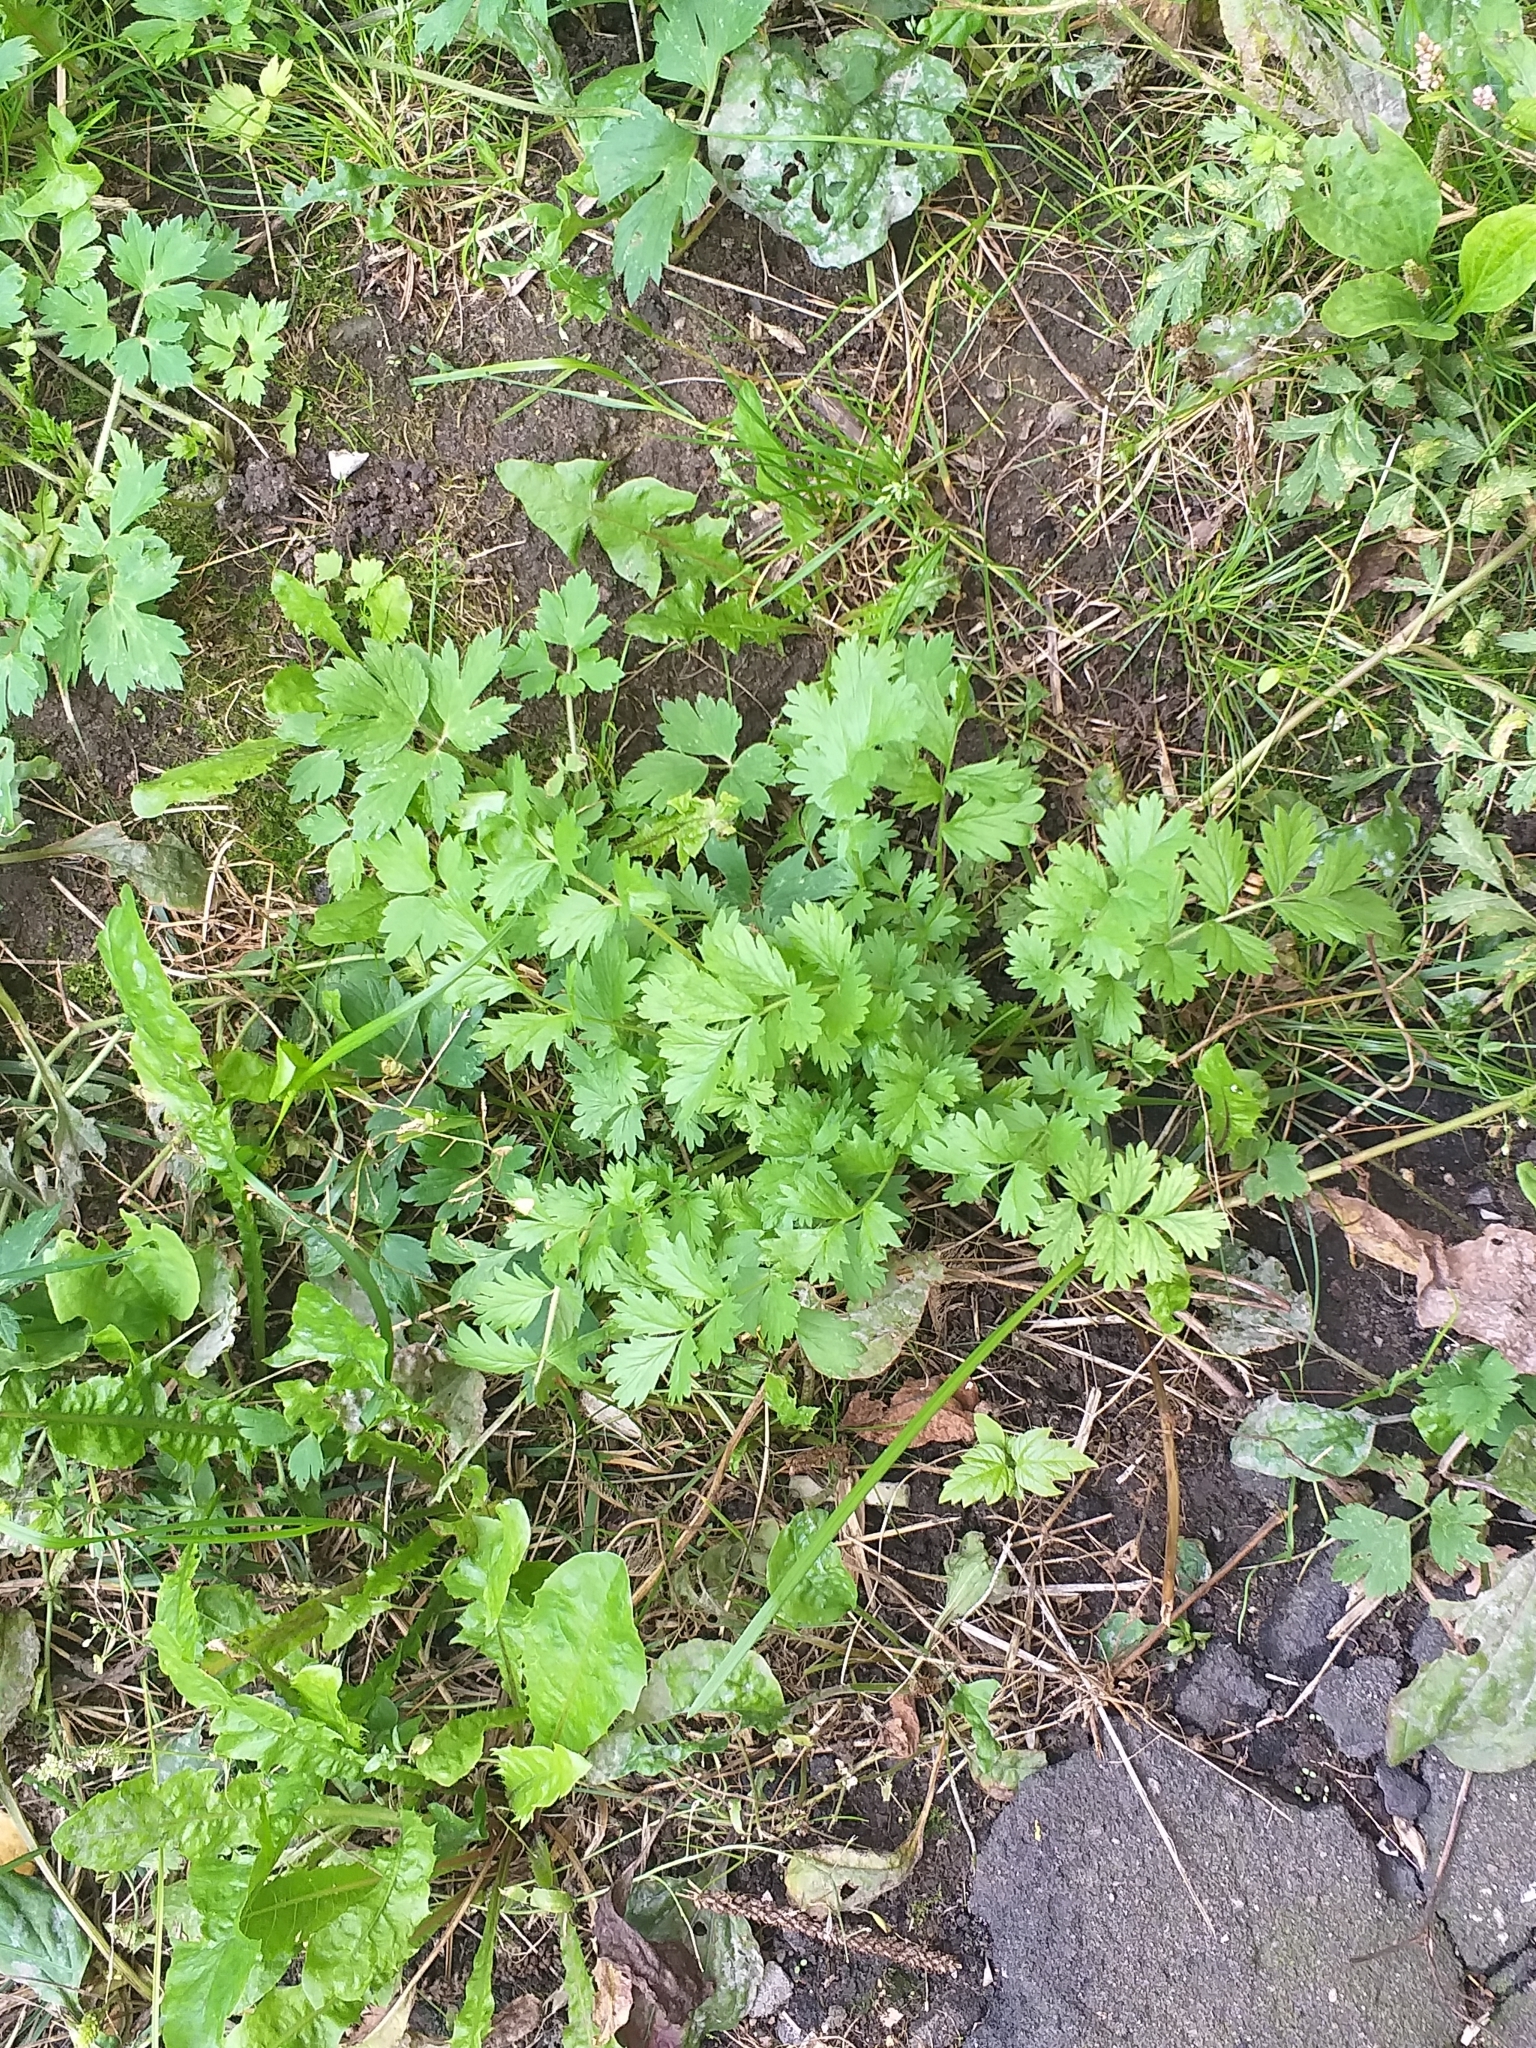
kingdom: Plantae
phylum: Tracheophyta
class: Magnoliopsida
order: Rosales
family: Rosaceae
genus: Potentilla
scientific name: Potentilla supina
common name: Prostrate cinquefoil
